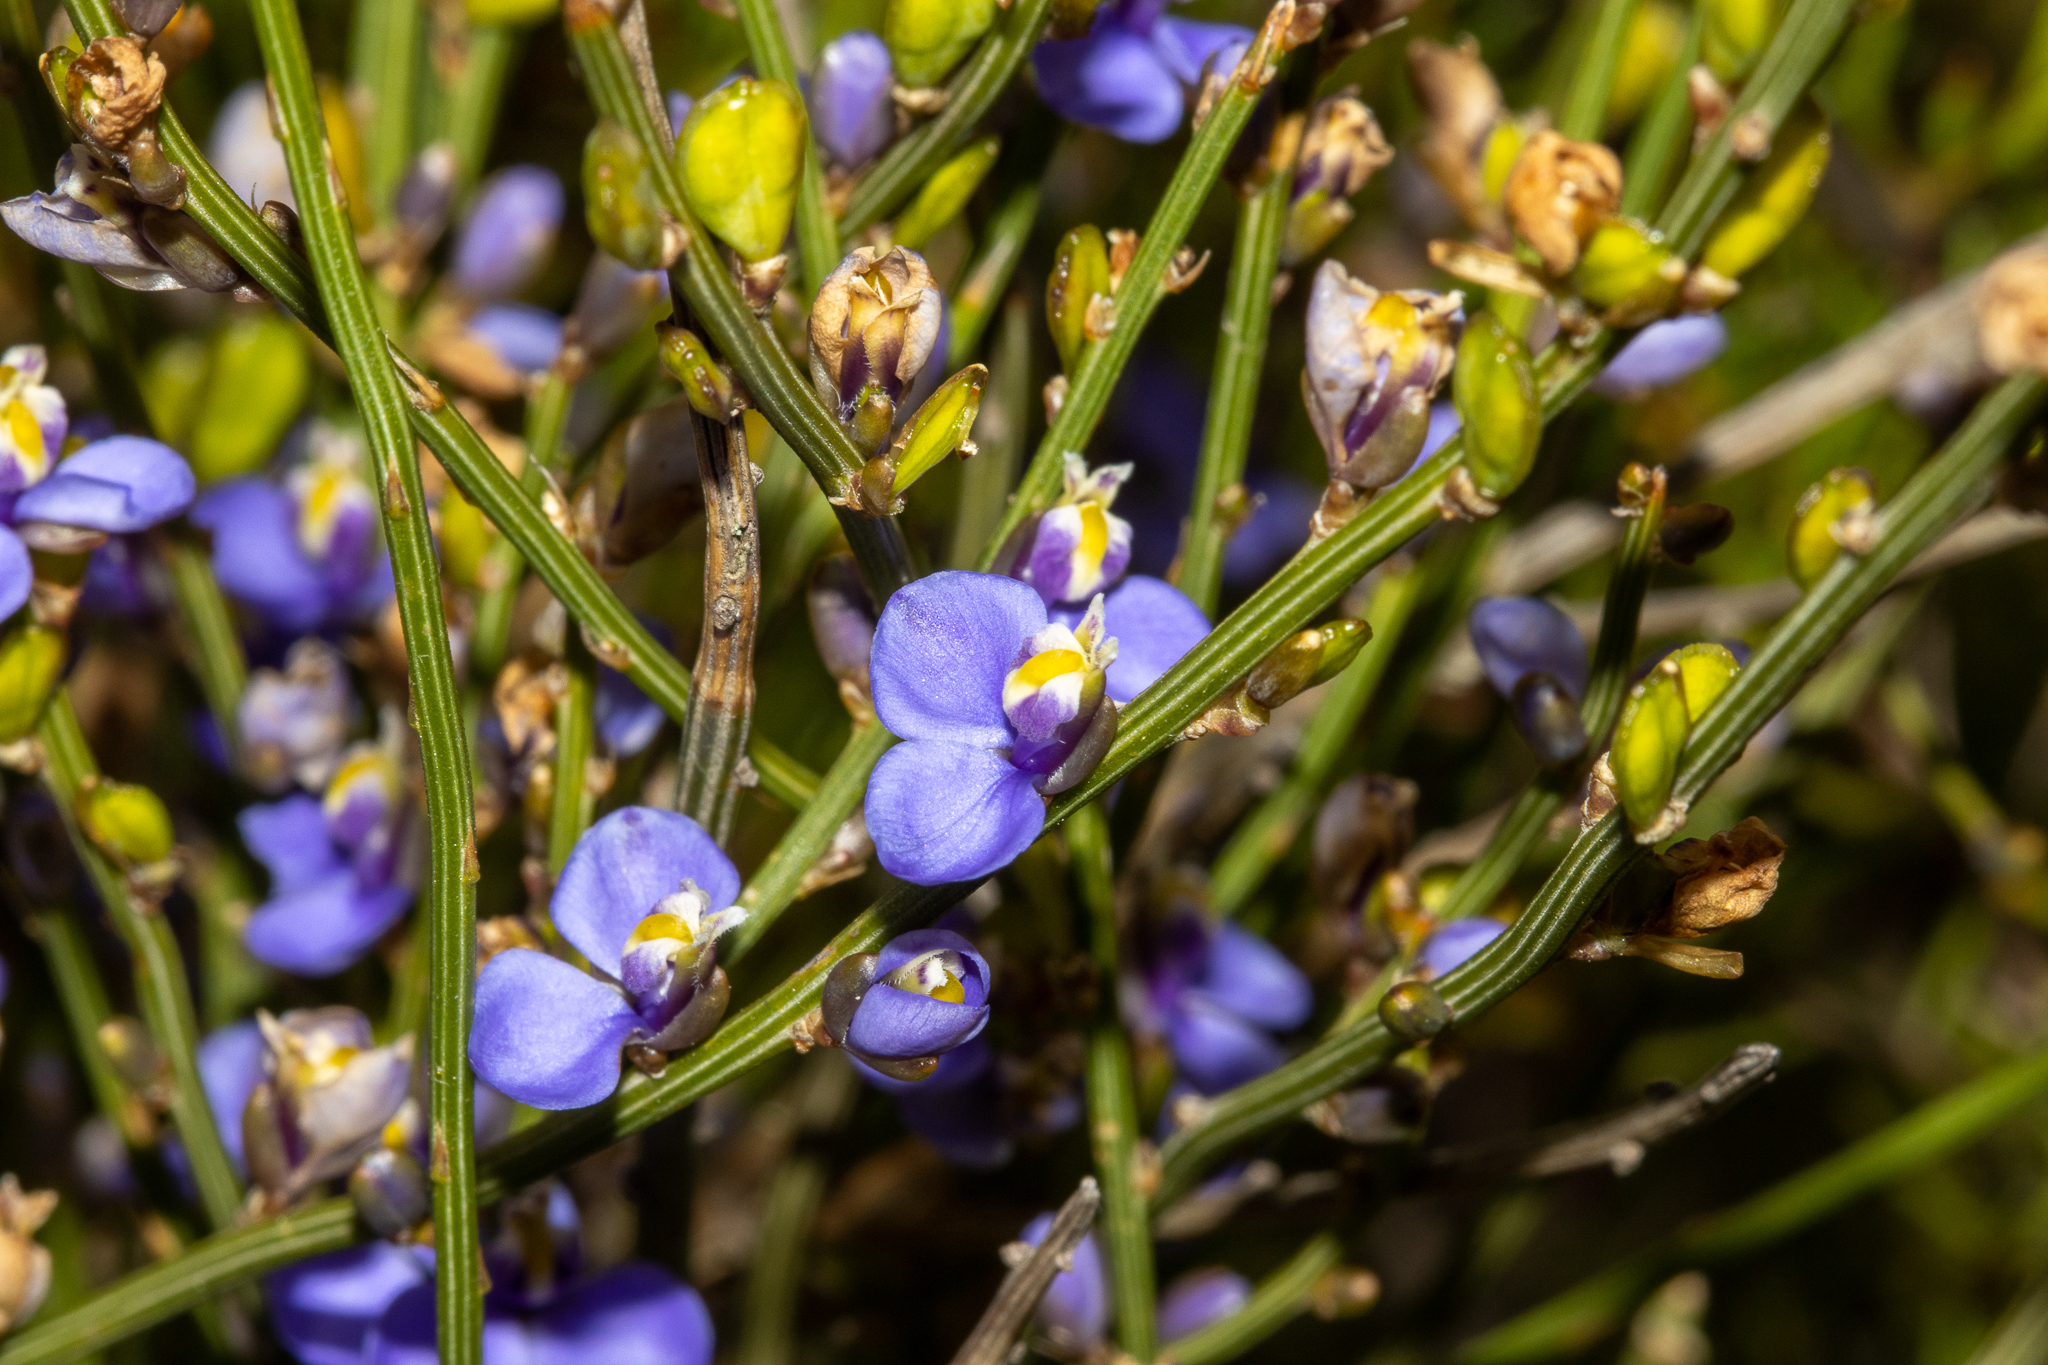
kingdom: Plantae
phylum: Tracheophyta
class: Magnoliopsida
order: Fabales
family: Polygalaceae
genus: Comesperma
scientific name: Comesperma scoparium
